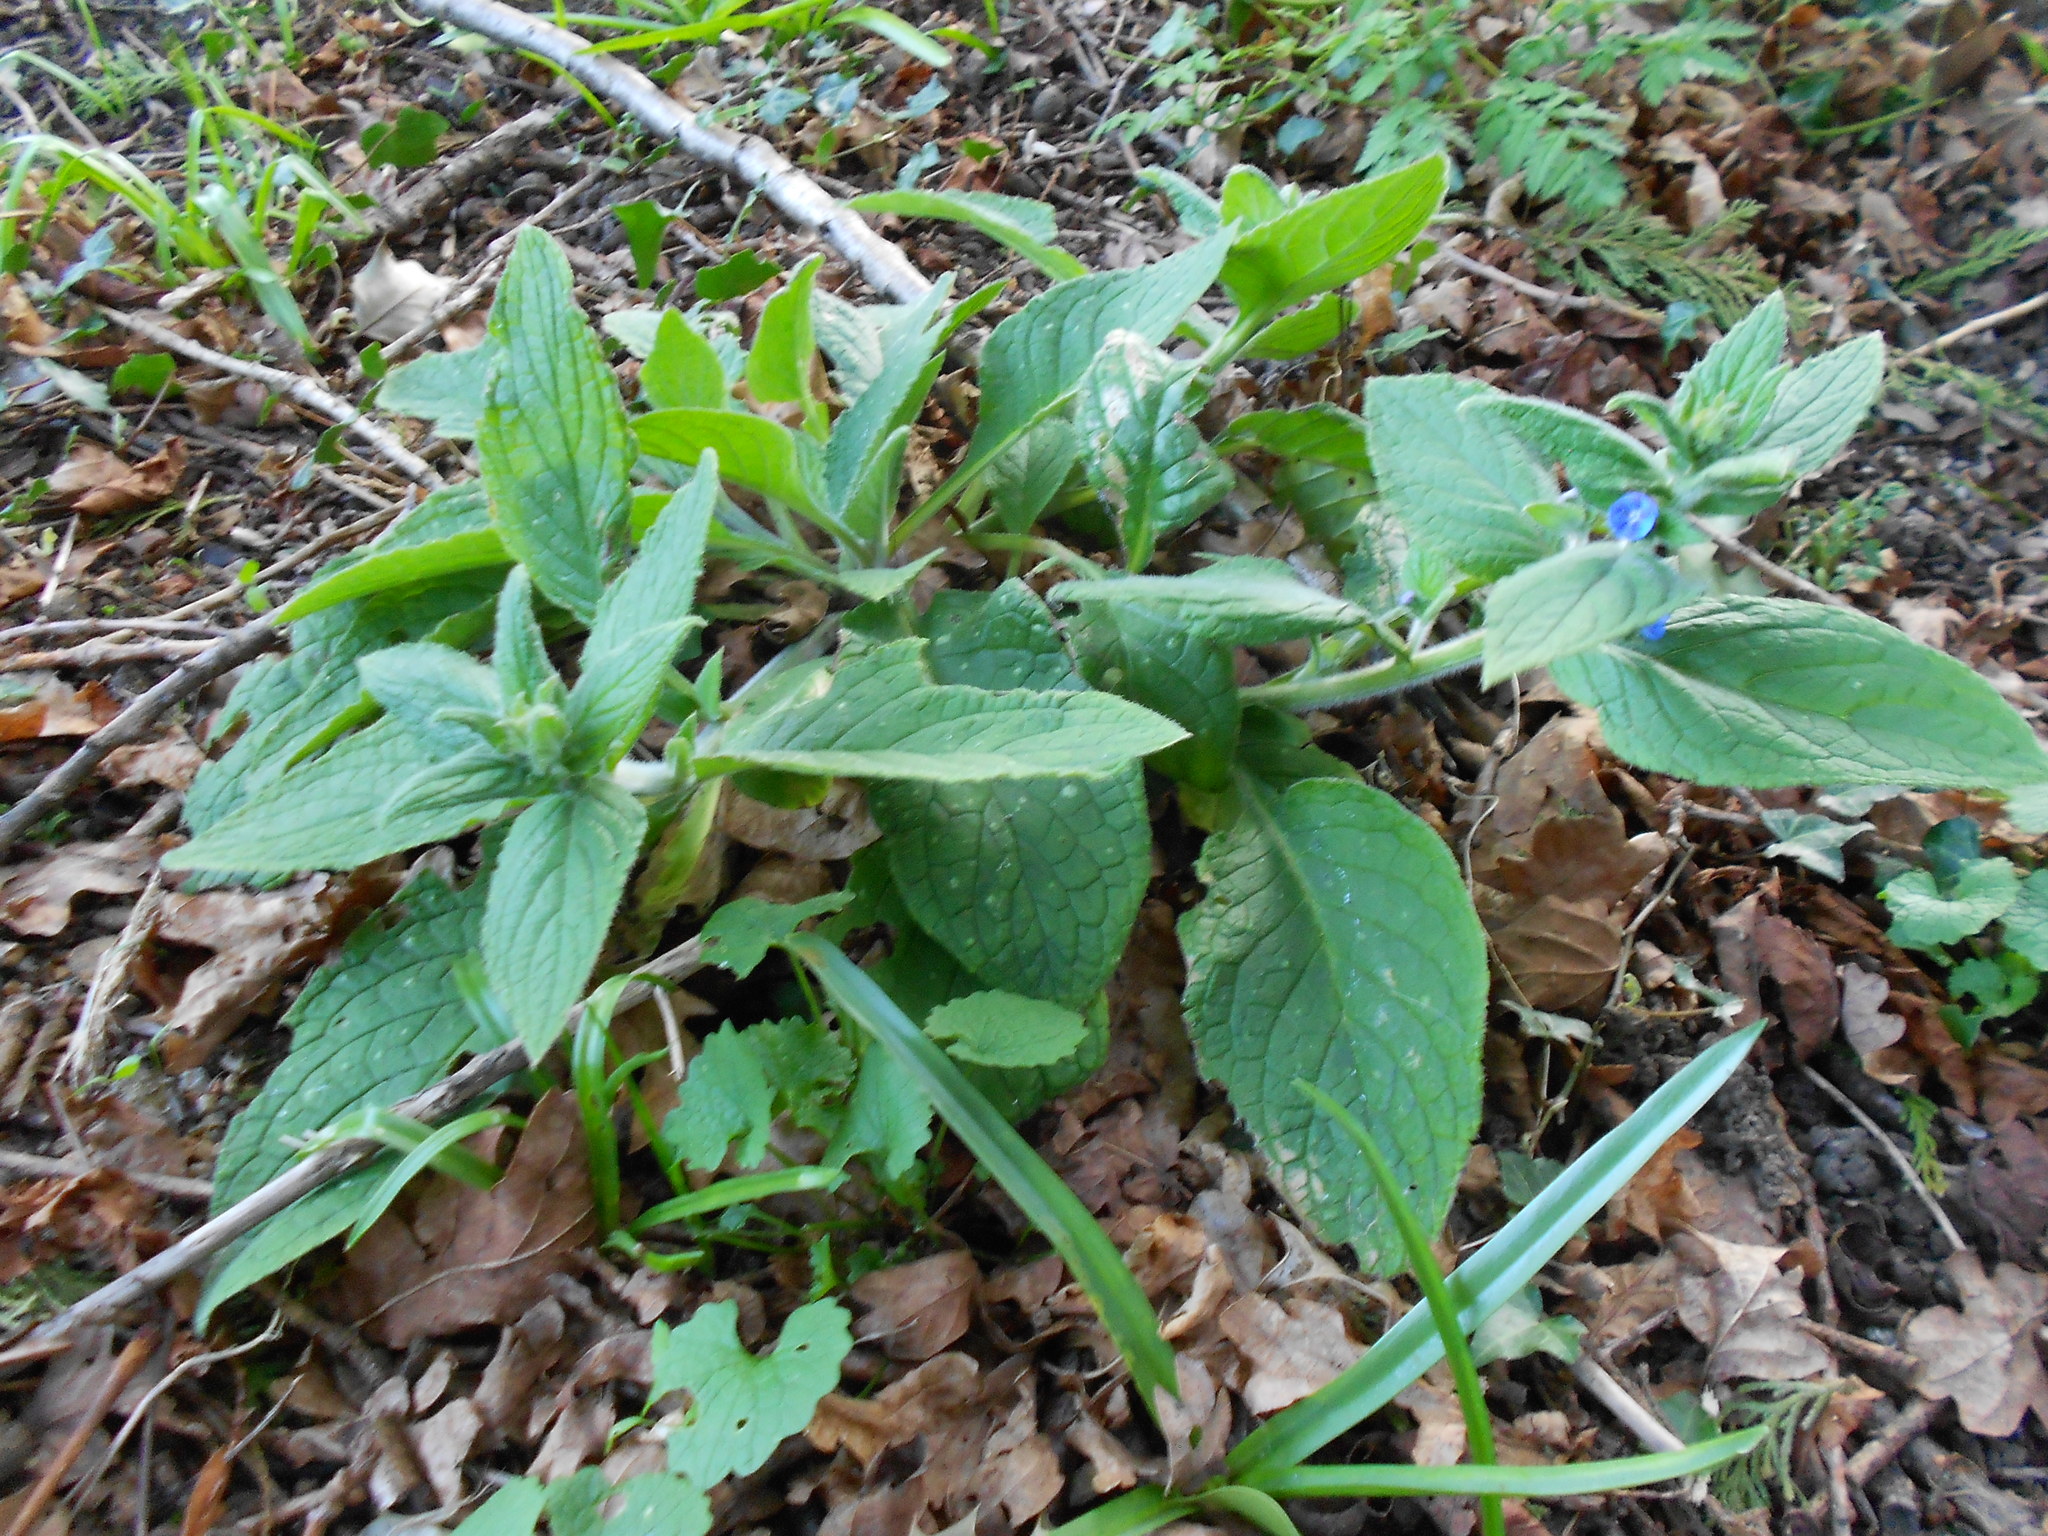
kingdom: Plantae
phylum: Tracheophyta
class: Magnoliopsida
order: Boraginales
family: Boraginaceae
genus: Pentaglottis
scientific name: Pentaglottis sempervirens
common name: Green alkanet
